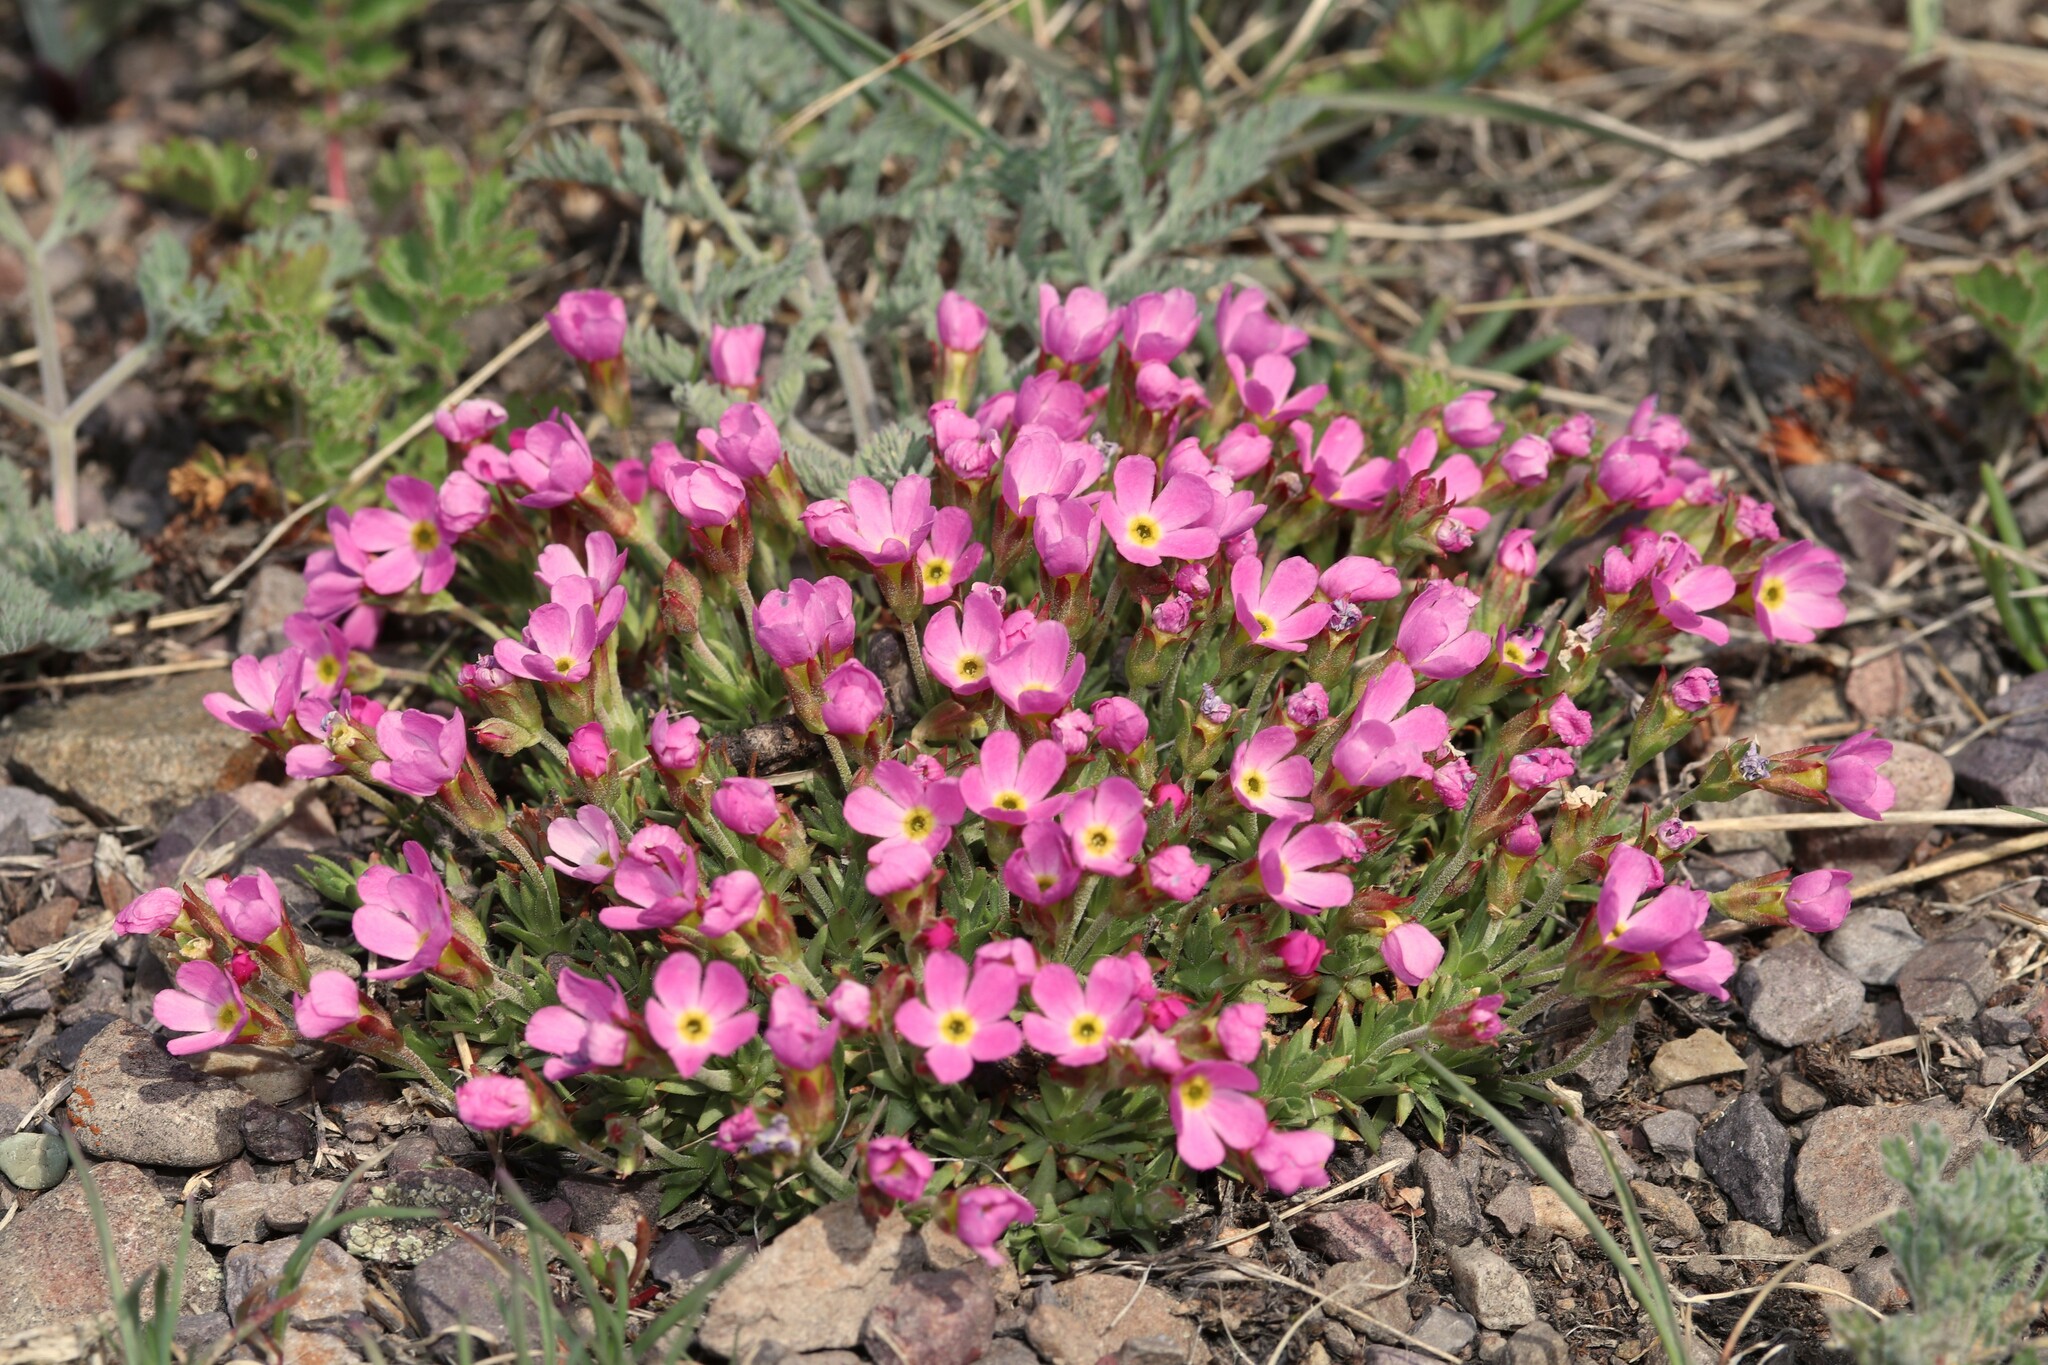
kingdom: Plantae
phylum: Tracheophyta
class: Magnoliopsida
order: Ericales
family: Primulaceae
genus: Androsace
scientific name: Androsace montana
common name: Rocky mountain dwarf-primrose
